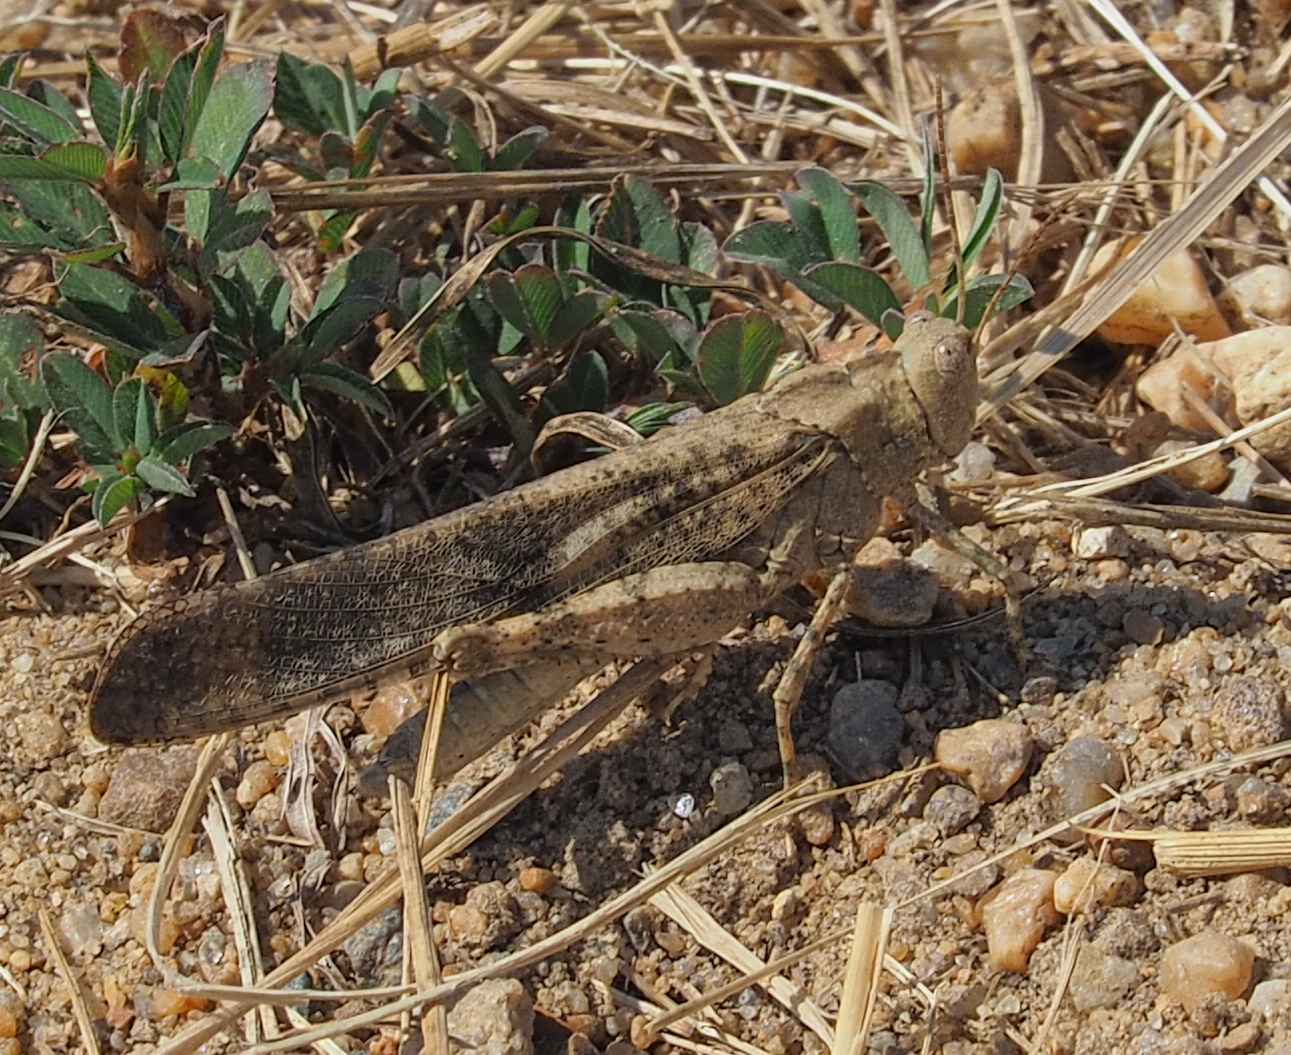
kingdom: Animalia
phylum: Arthropoda
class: Insecta
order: Orthoptera
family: Acrididae
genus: Dissosteira
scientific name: Dissosteira carolina
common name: Carolina grasshopper
